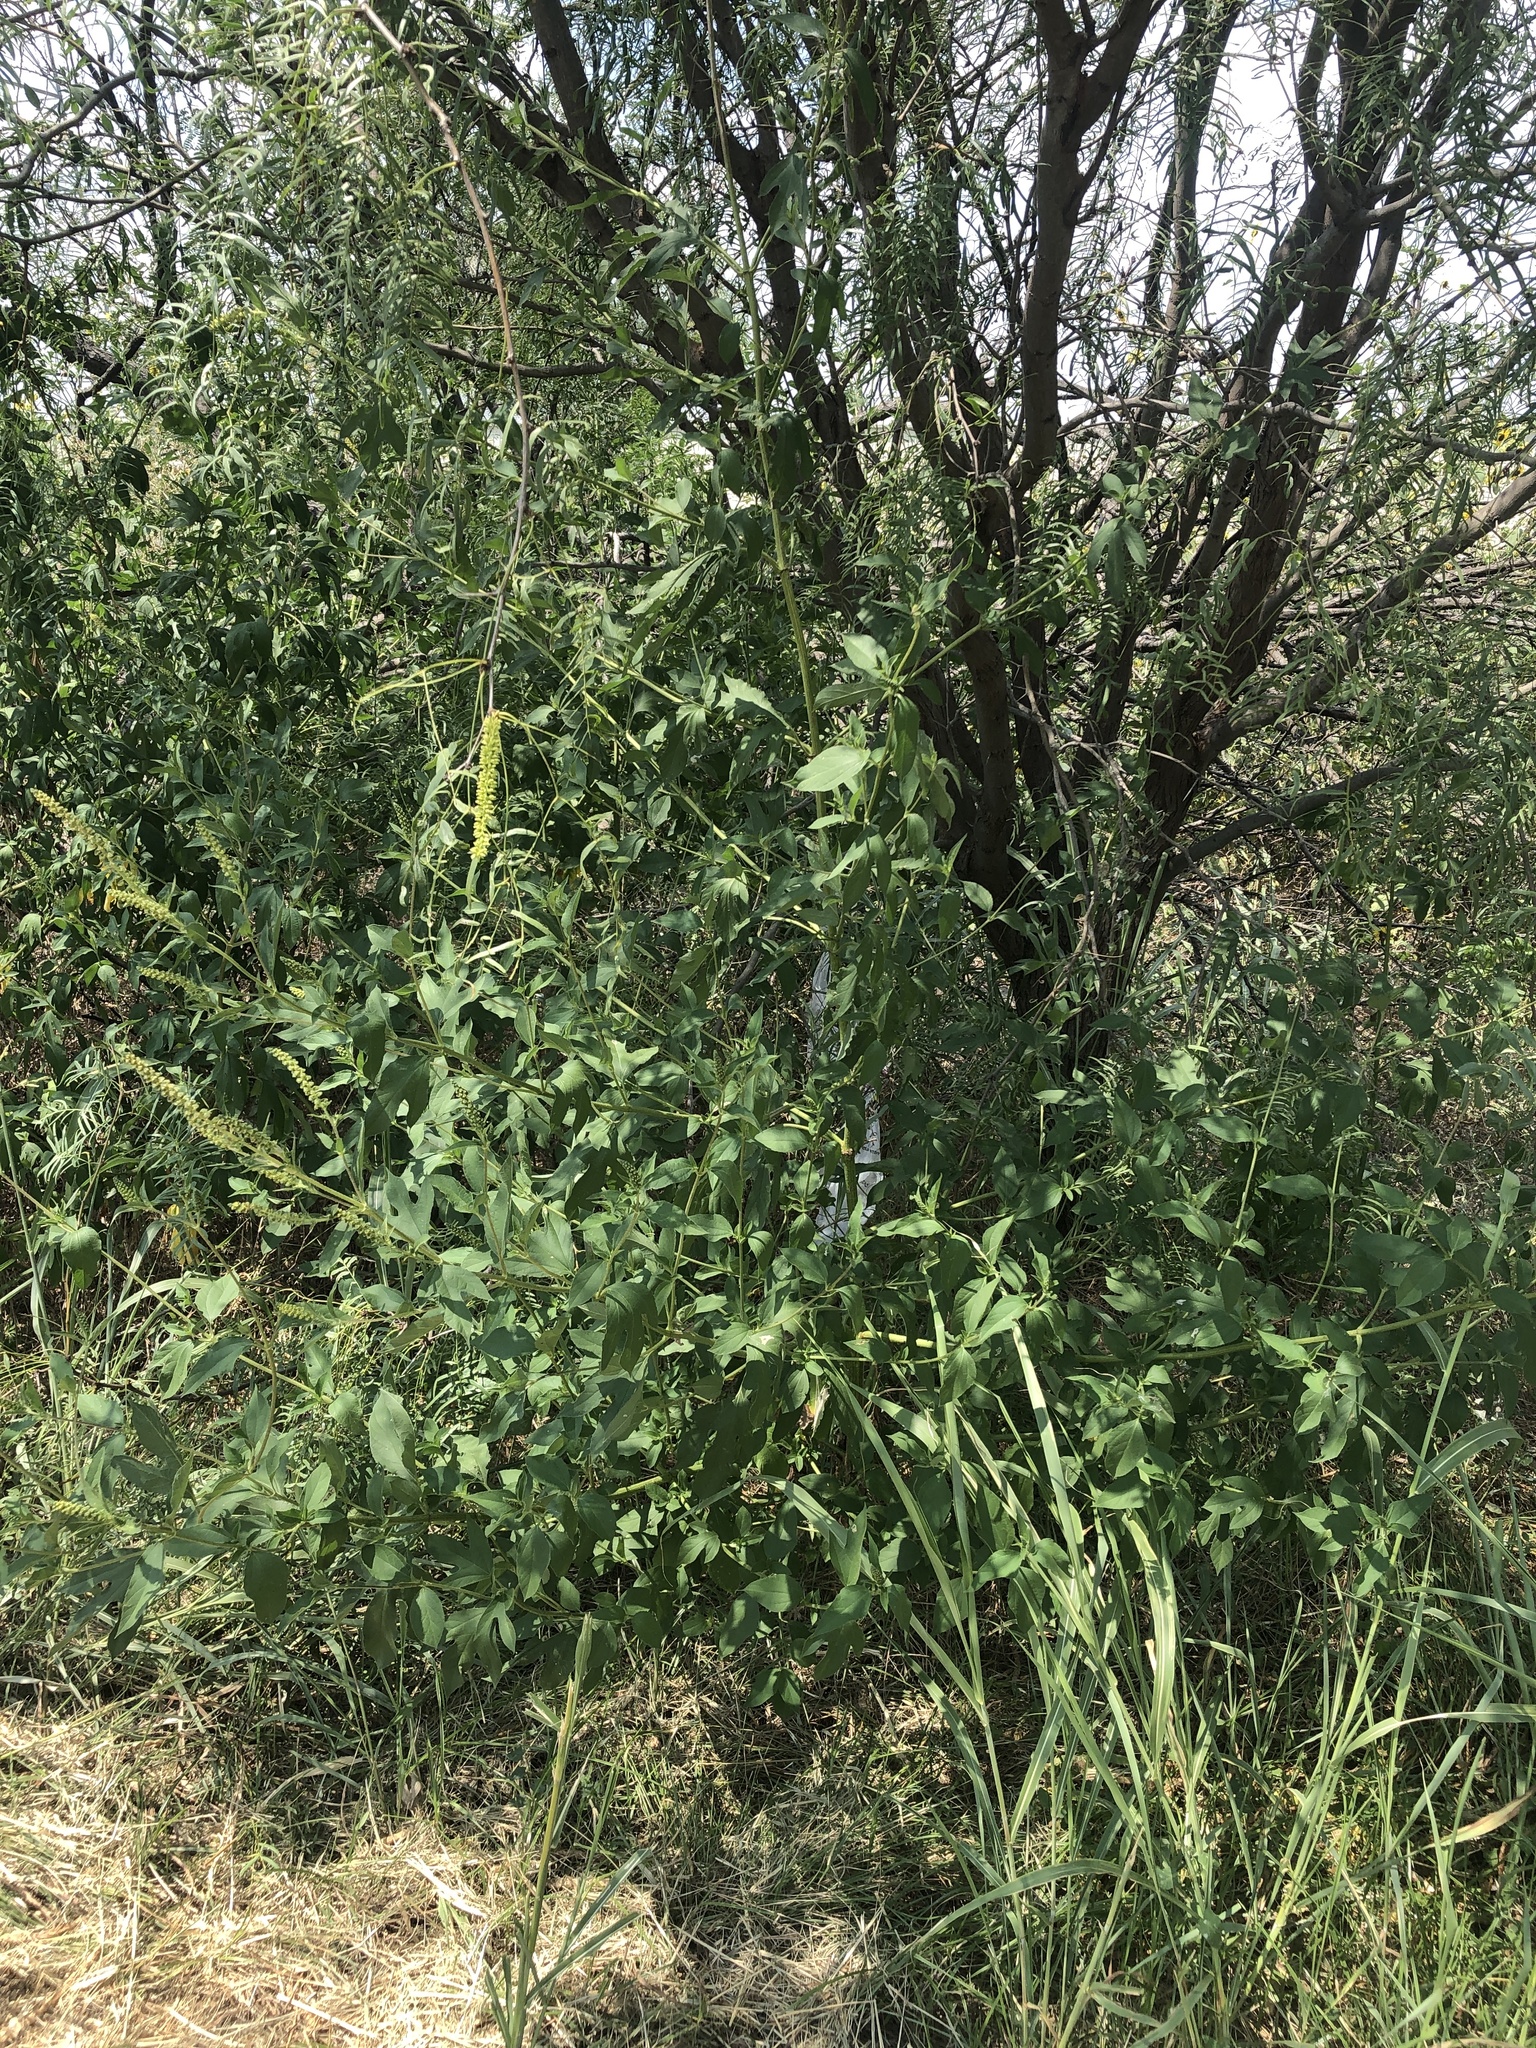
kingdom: Plantae
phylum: Tracheophyta
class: Magnoliopsida
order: Asterales
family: Asteraceae
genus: Ambrosia
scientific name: Ambrosia trifida
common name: Giant ragweed
